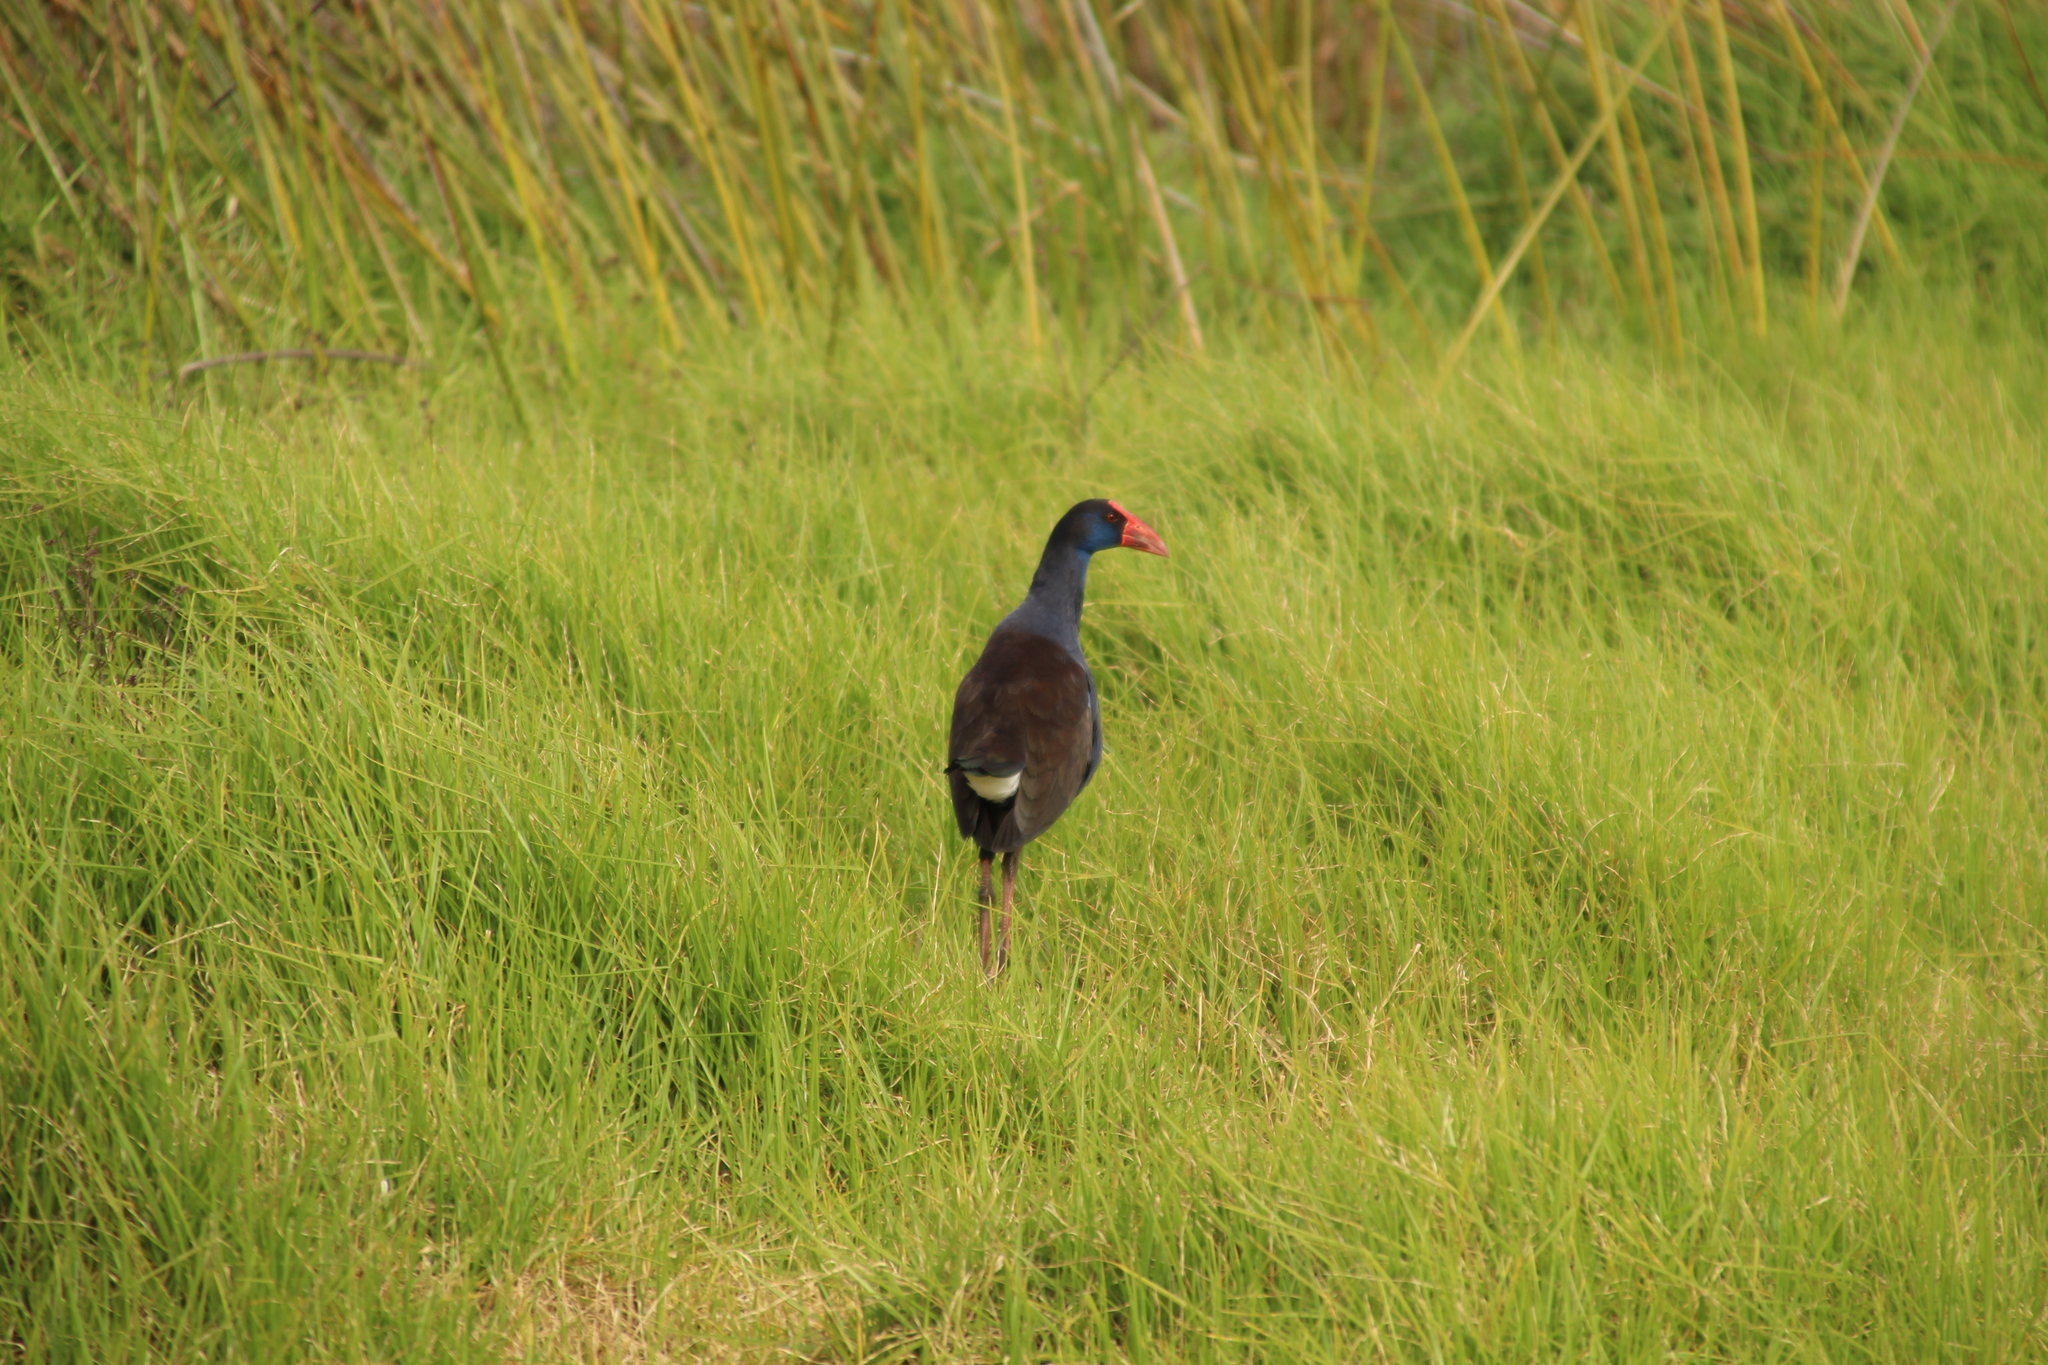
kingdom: Animalia
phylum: Chordata
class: Aves
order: Gruiformes
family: Rallidae
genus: Porphyrio
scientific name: Porphyrio melanotus
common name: Australasian swamphen
